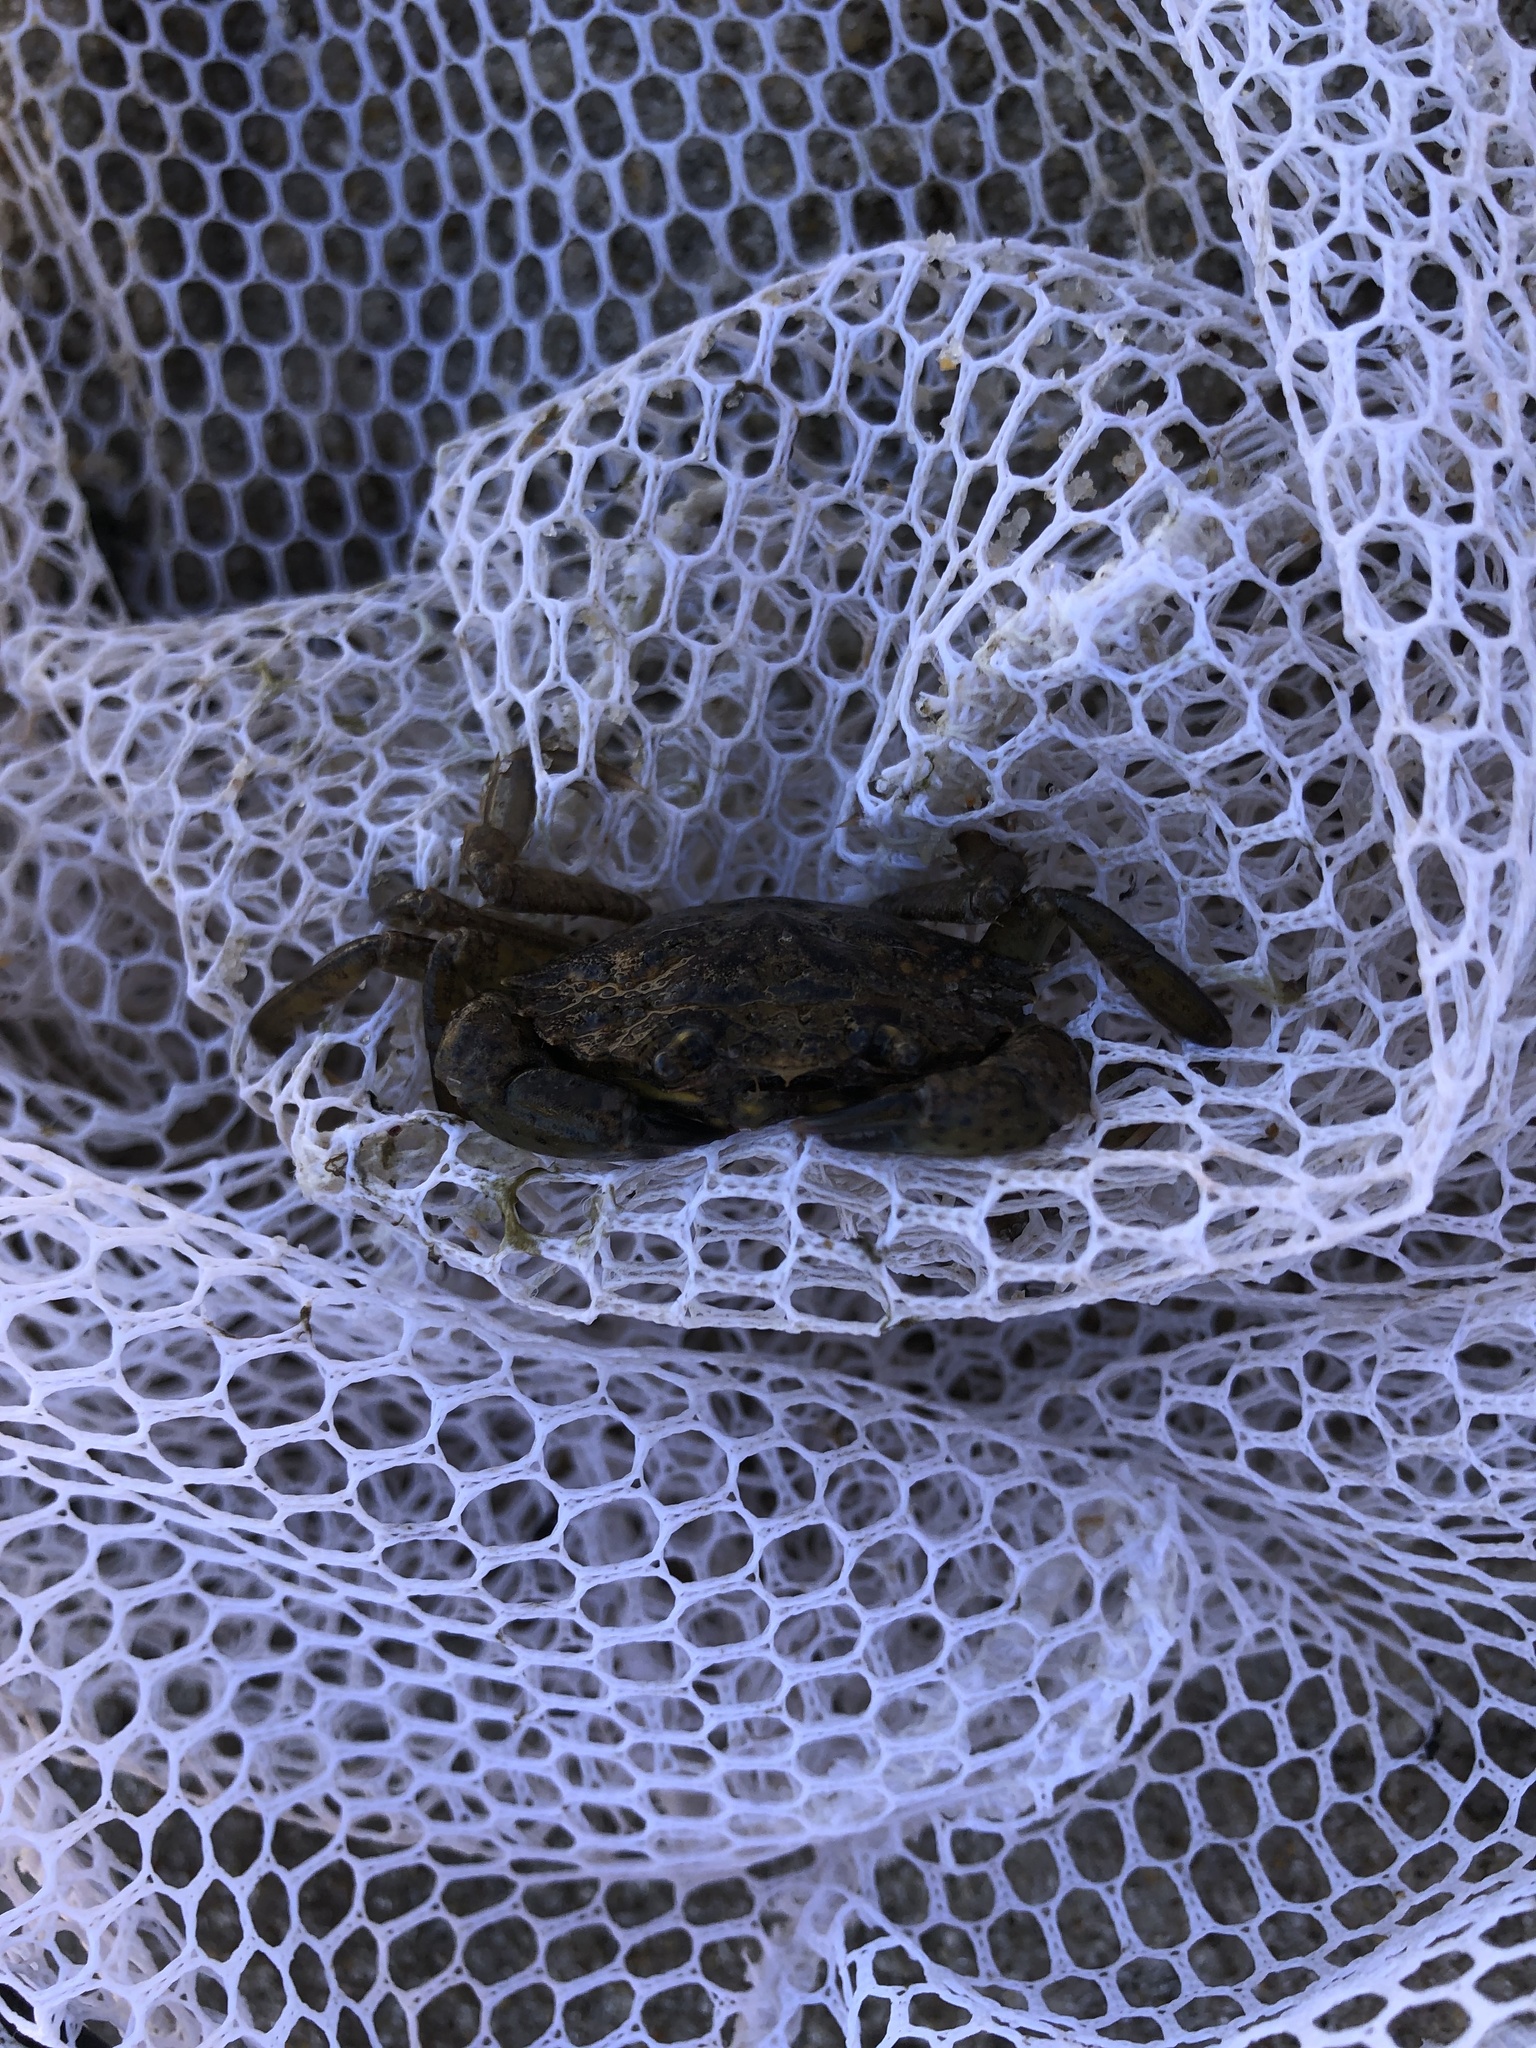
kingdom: Animalia
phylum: Arthropoda
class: Malacostraca
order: Decapoda
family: Carcinidae
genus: Carcinus
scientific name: Carcinus maenas
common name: European green crab
